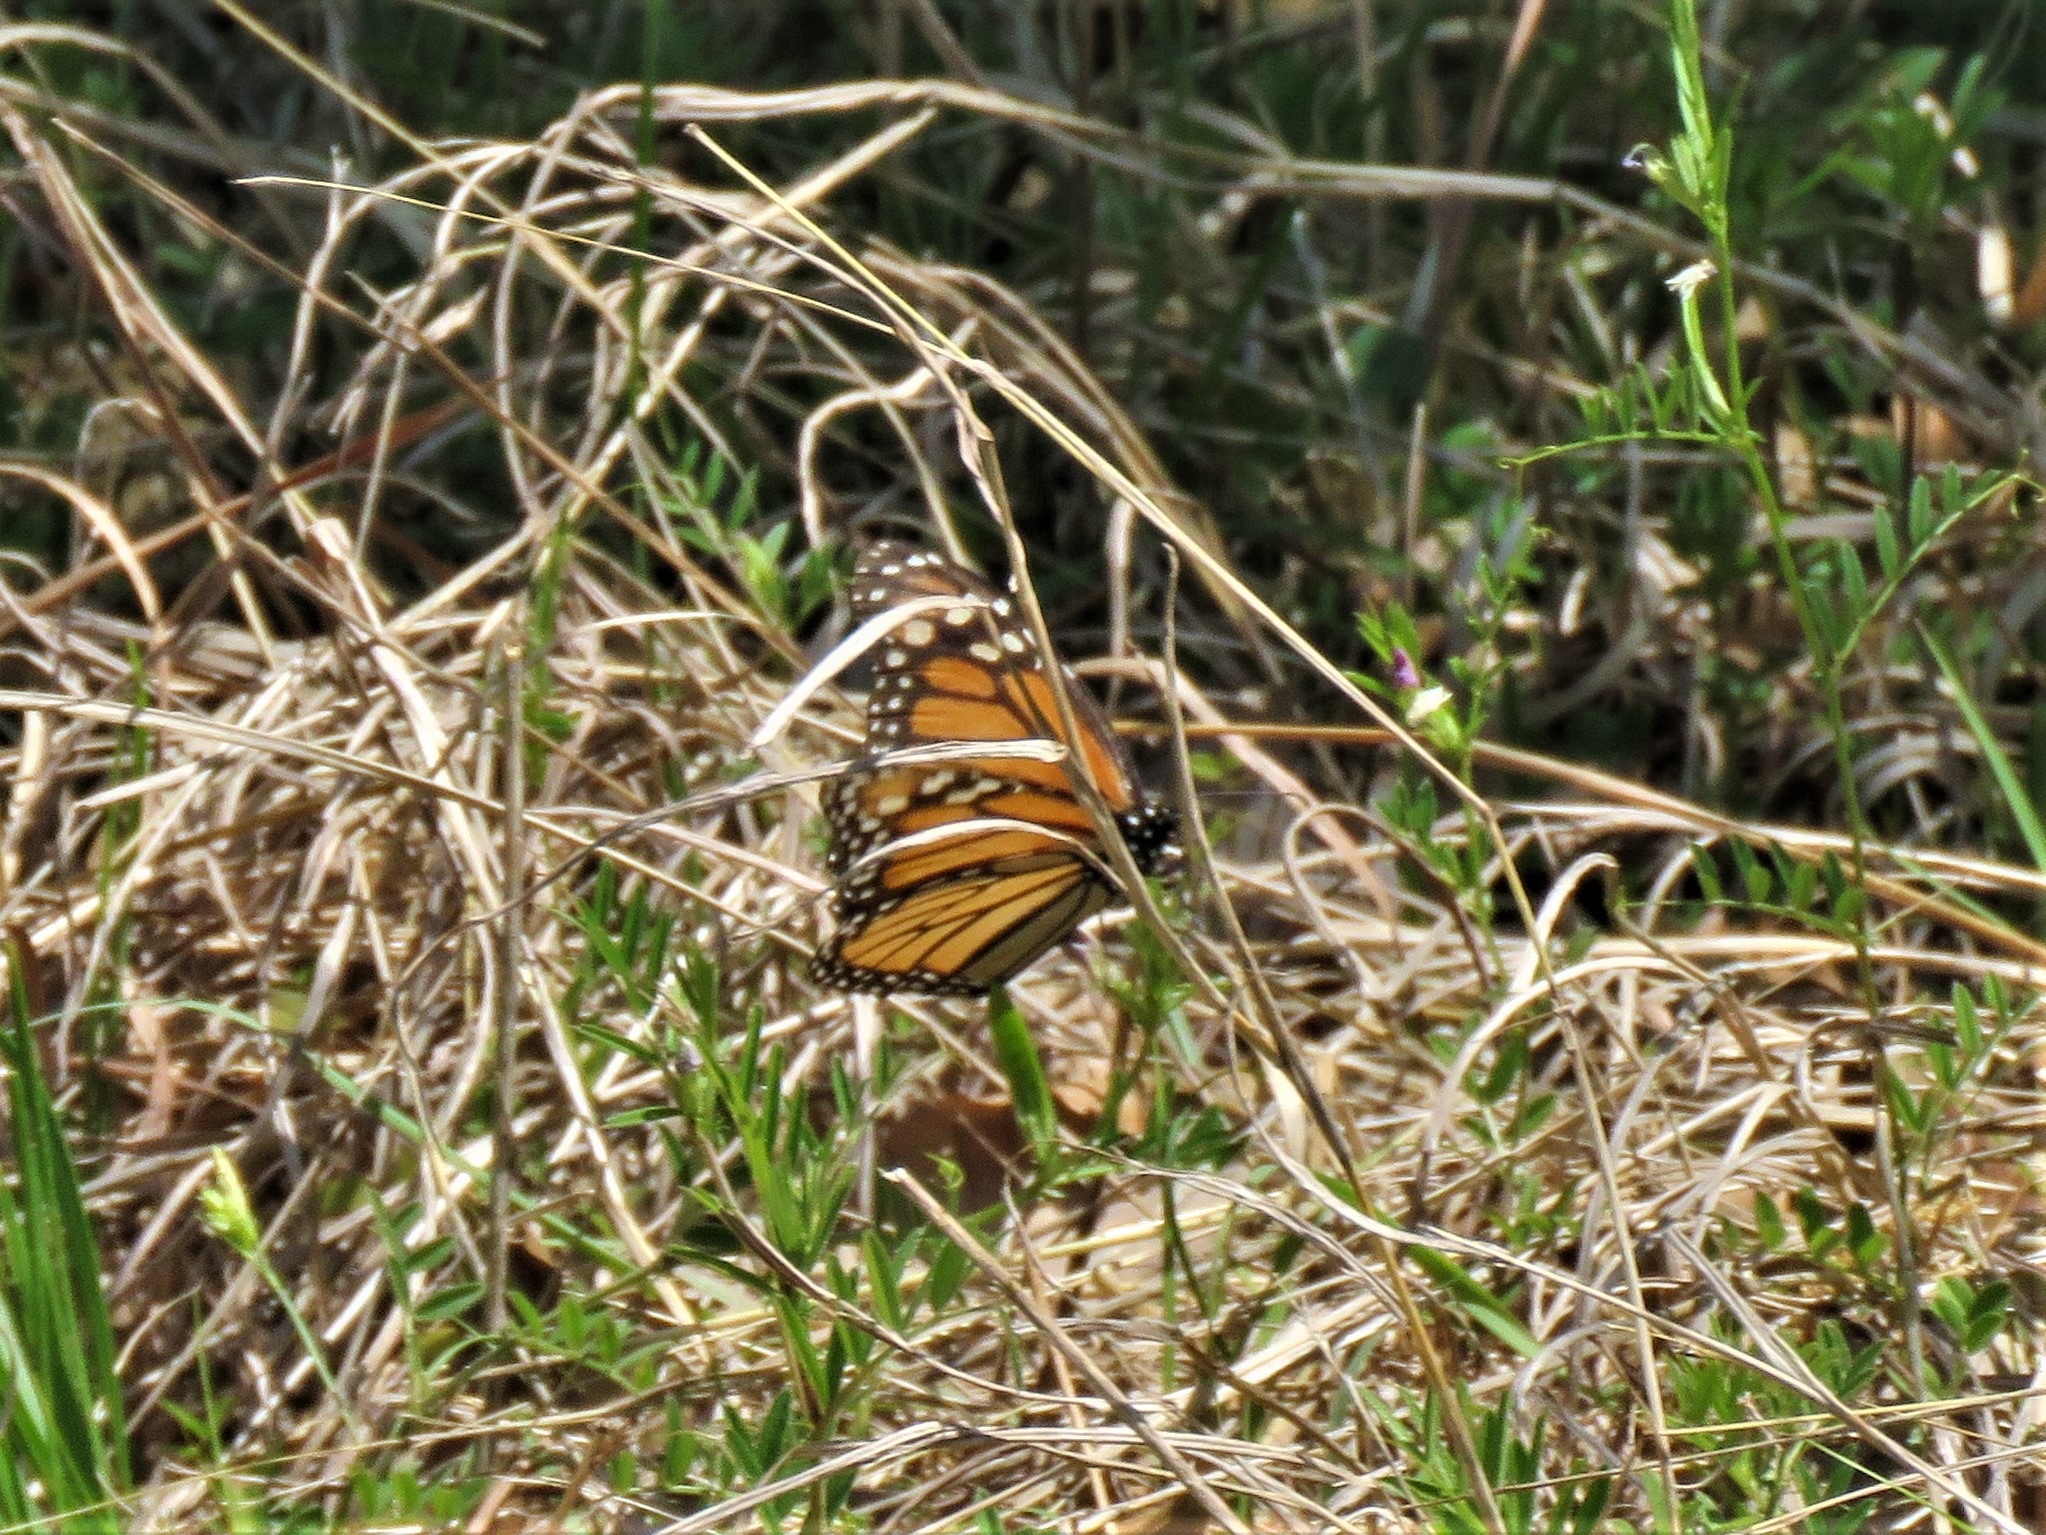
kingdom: Animalia
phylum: Arthropoda
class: Insecta
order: Lepidoptera
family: Nymphalidae
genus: Danaus
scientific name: Danaus plexippus
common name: Monarch
